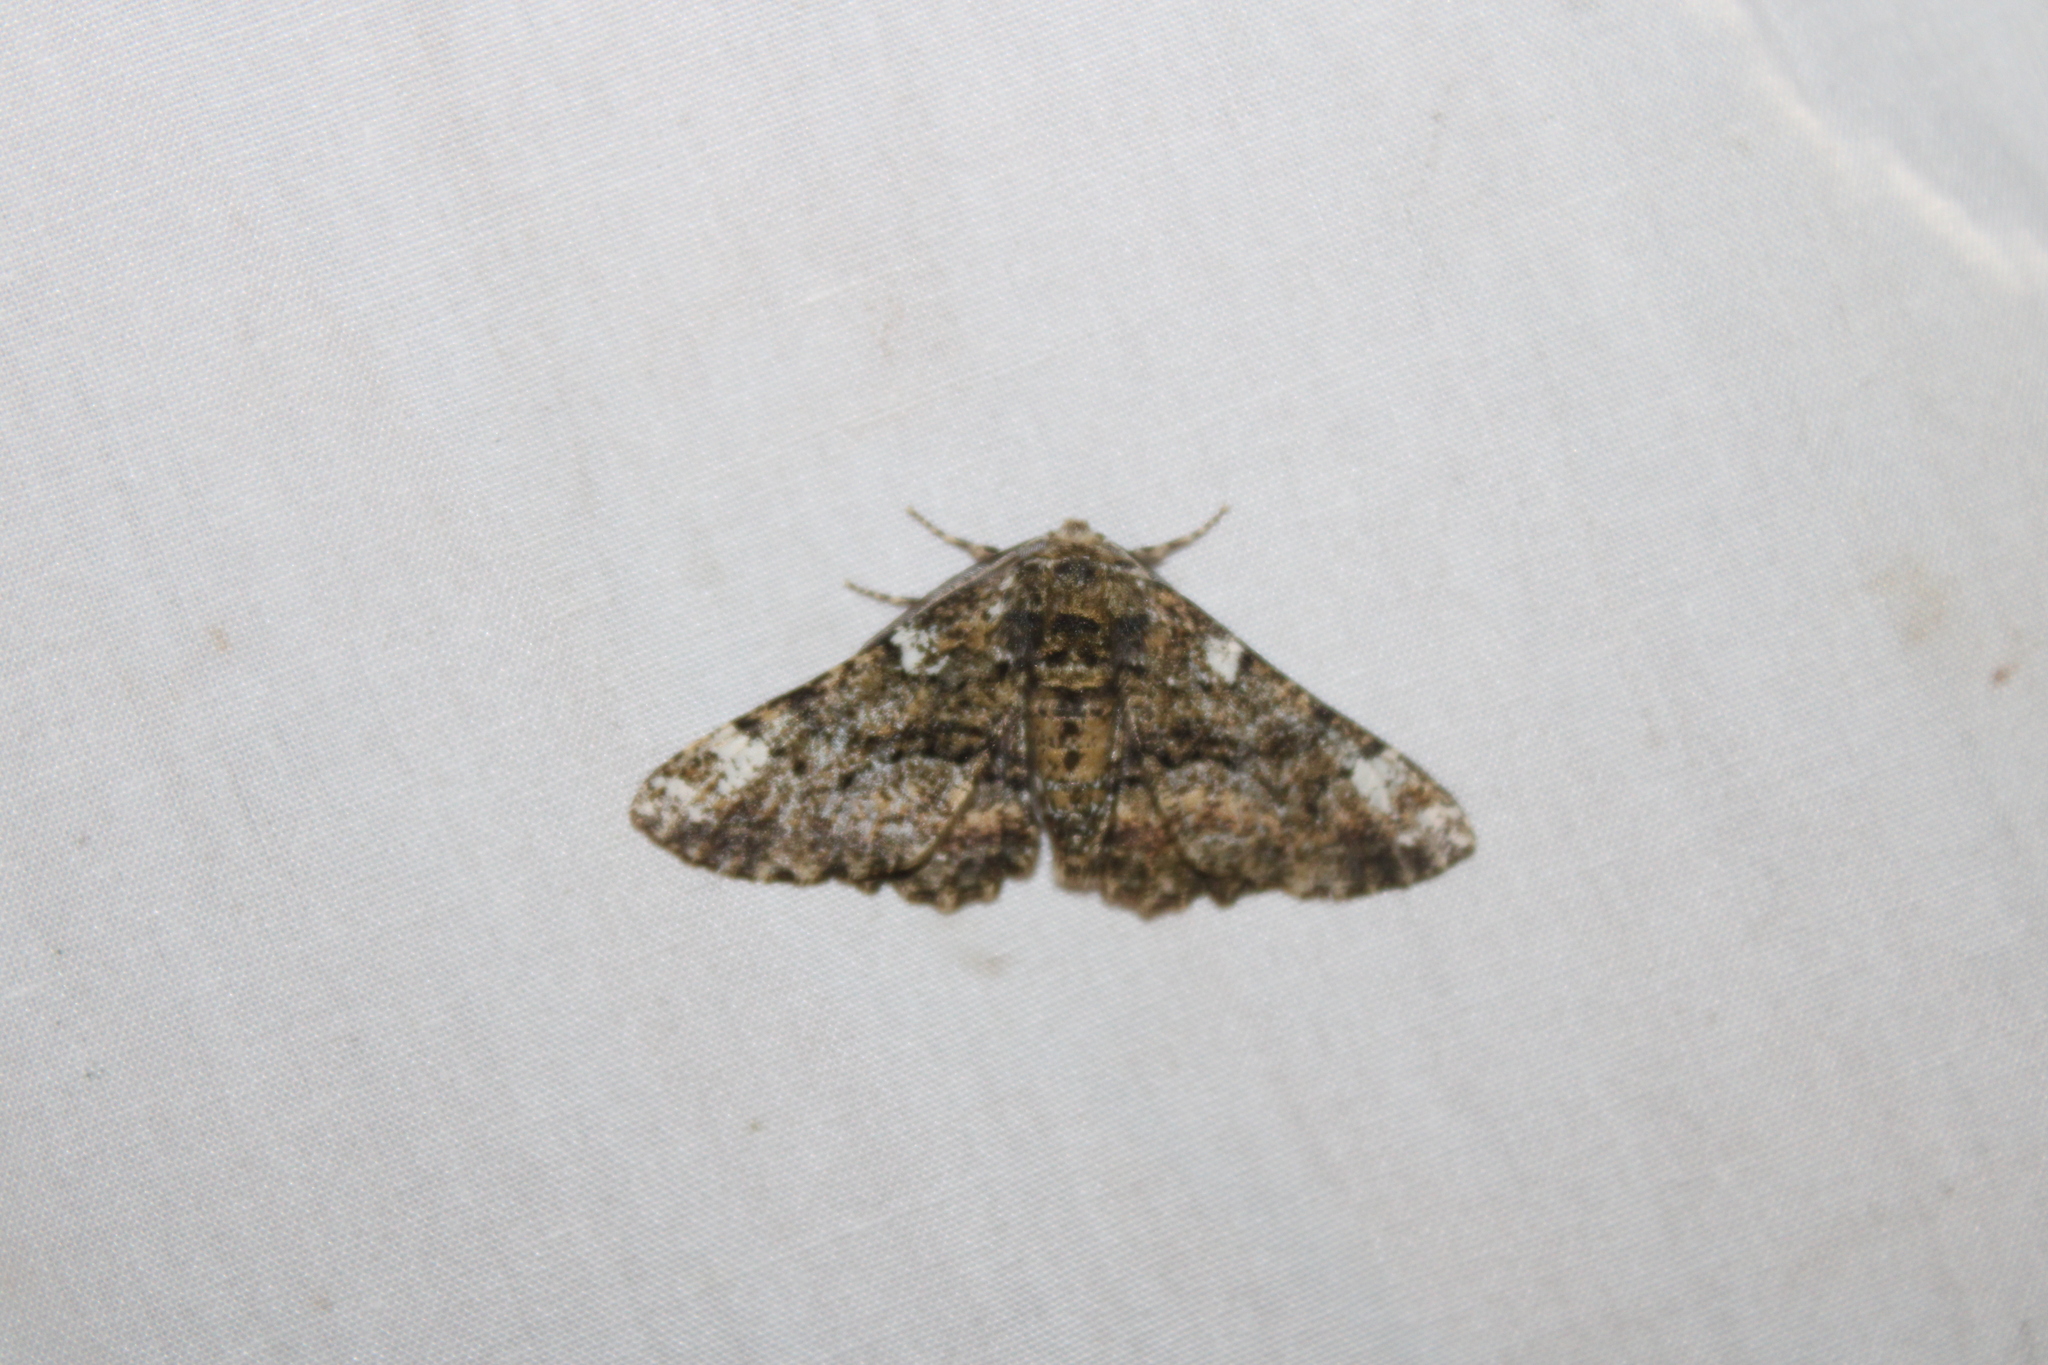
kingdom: Animalia
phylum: Arthropoda
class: Insecta
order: Lepidoptera
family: Geometridae
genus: Phaeoura
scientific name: Phaeoura quernaria
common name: Oak beauty
